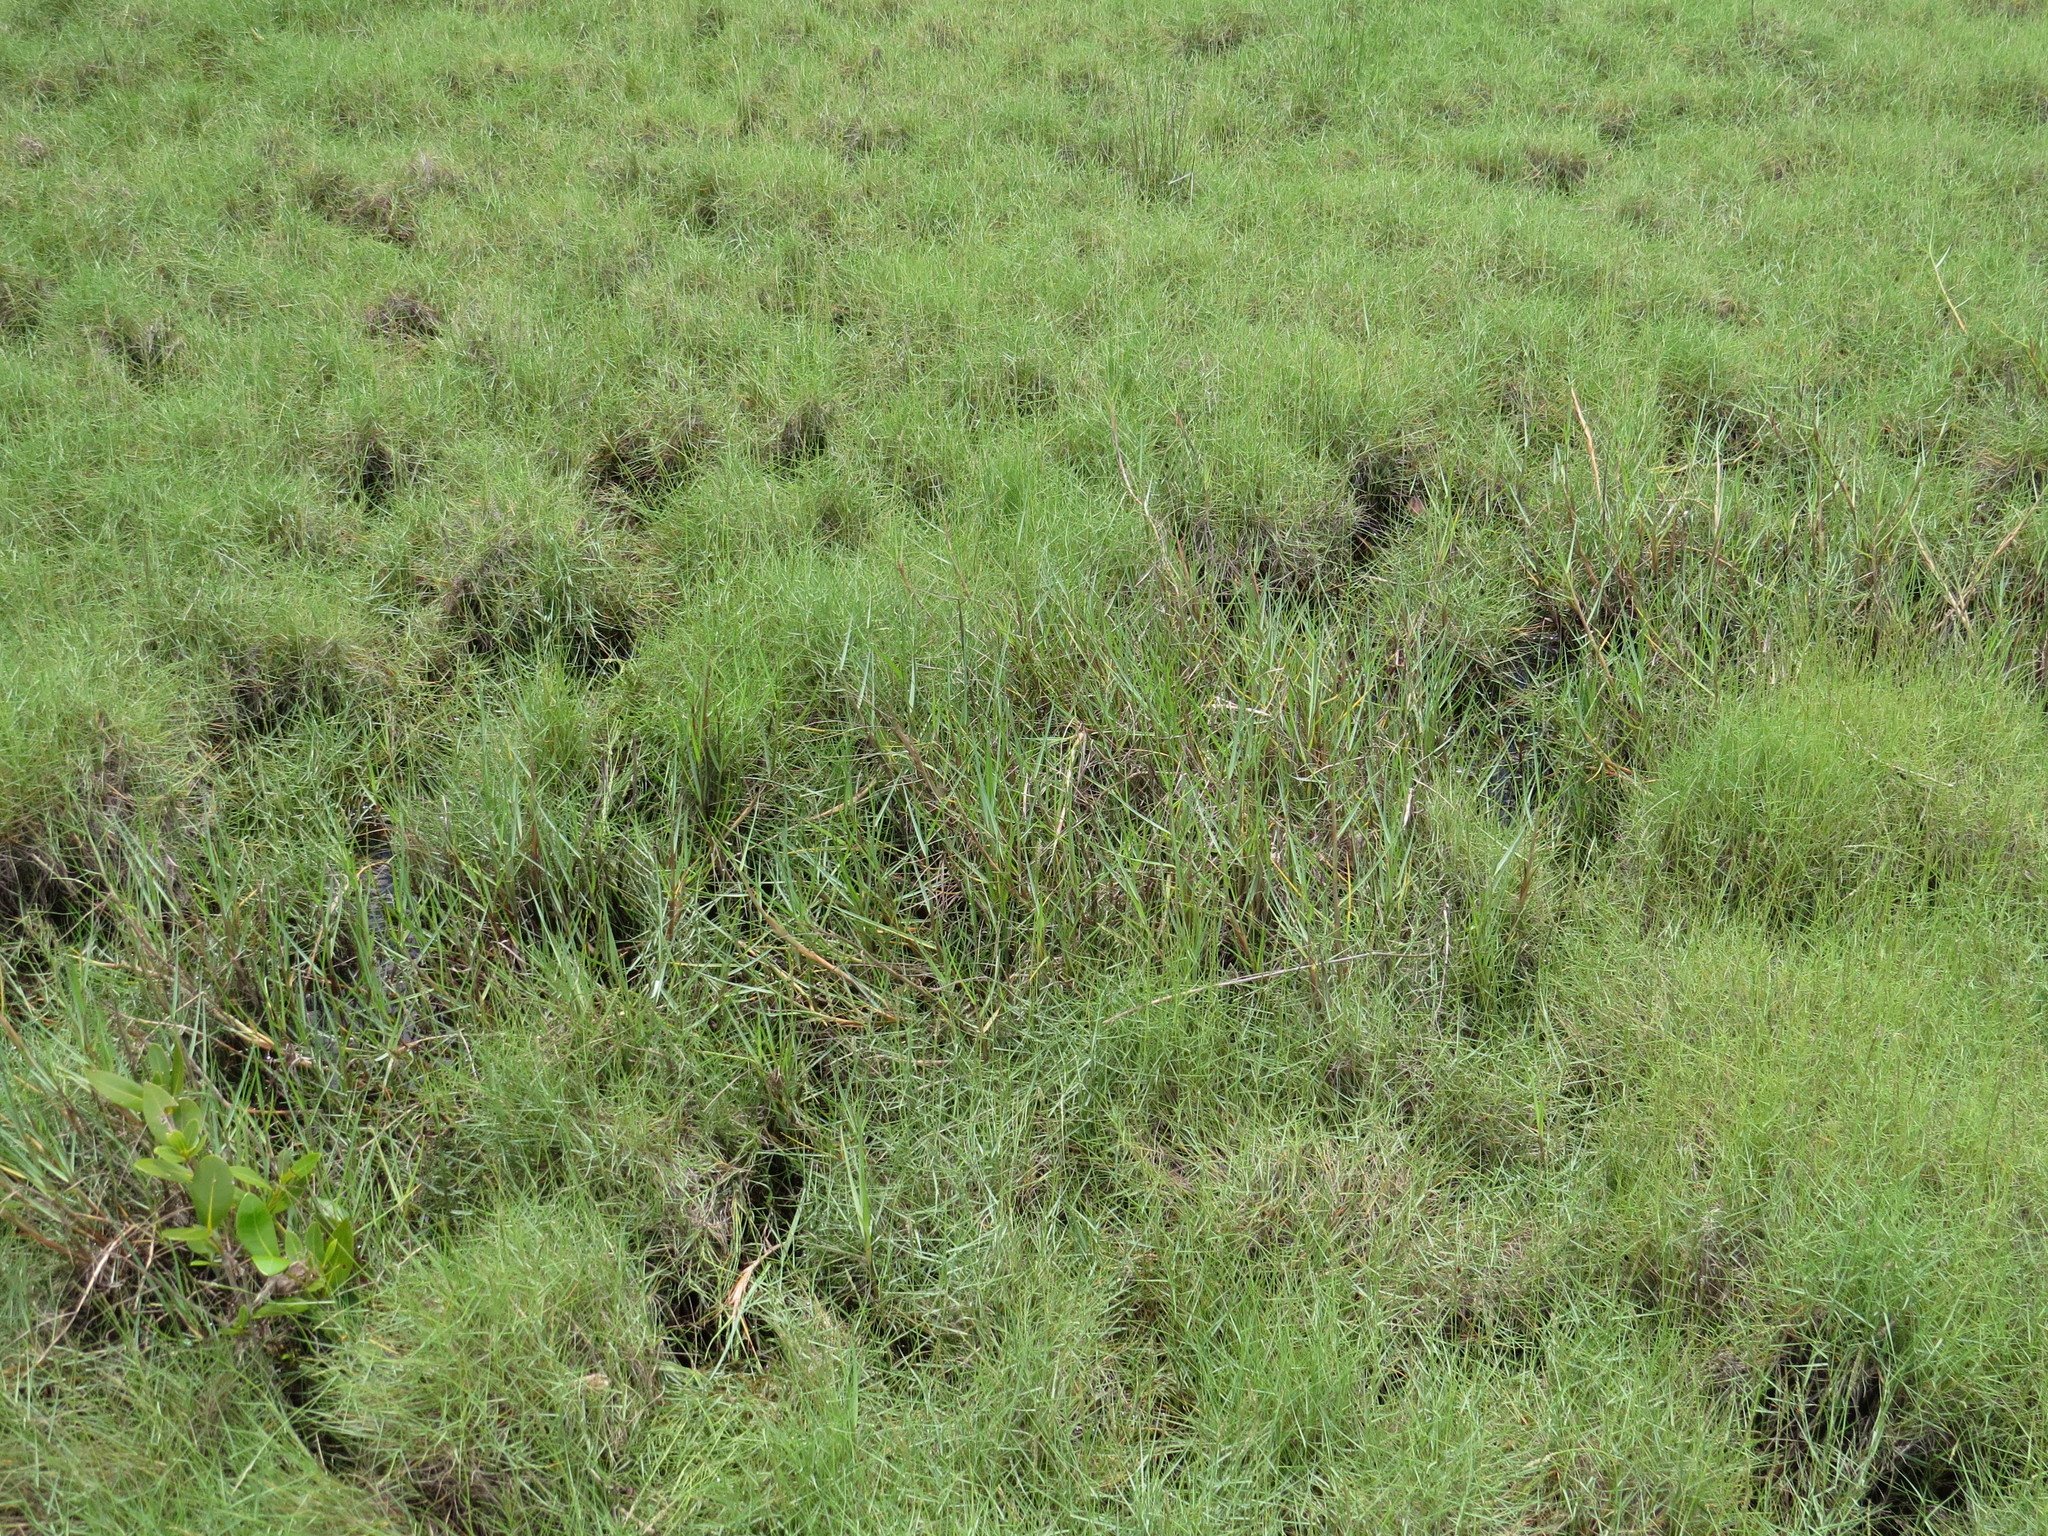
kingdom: Plantae
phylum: Tracheophyta
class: Liliopsida
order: Poales
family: Poaceae
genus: Sporobolus
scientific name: Sporobolus virginicus
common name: Beach dropseed
